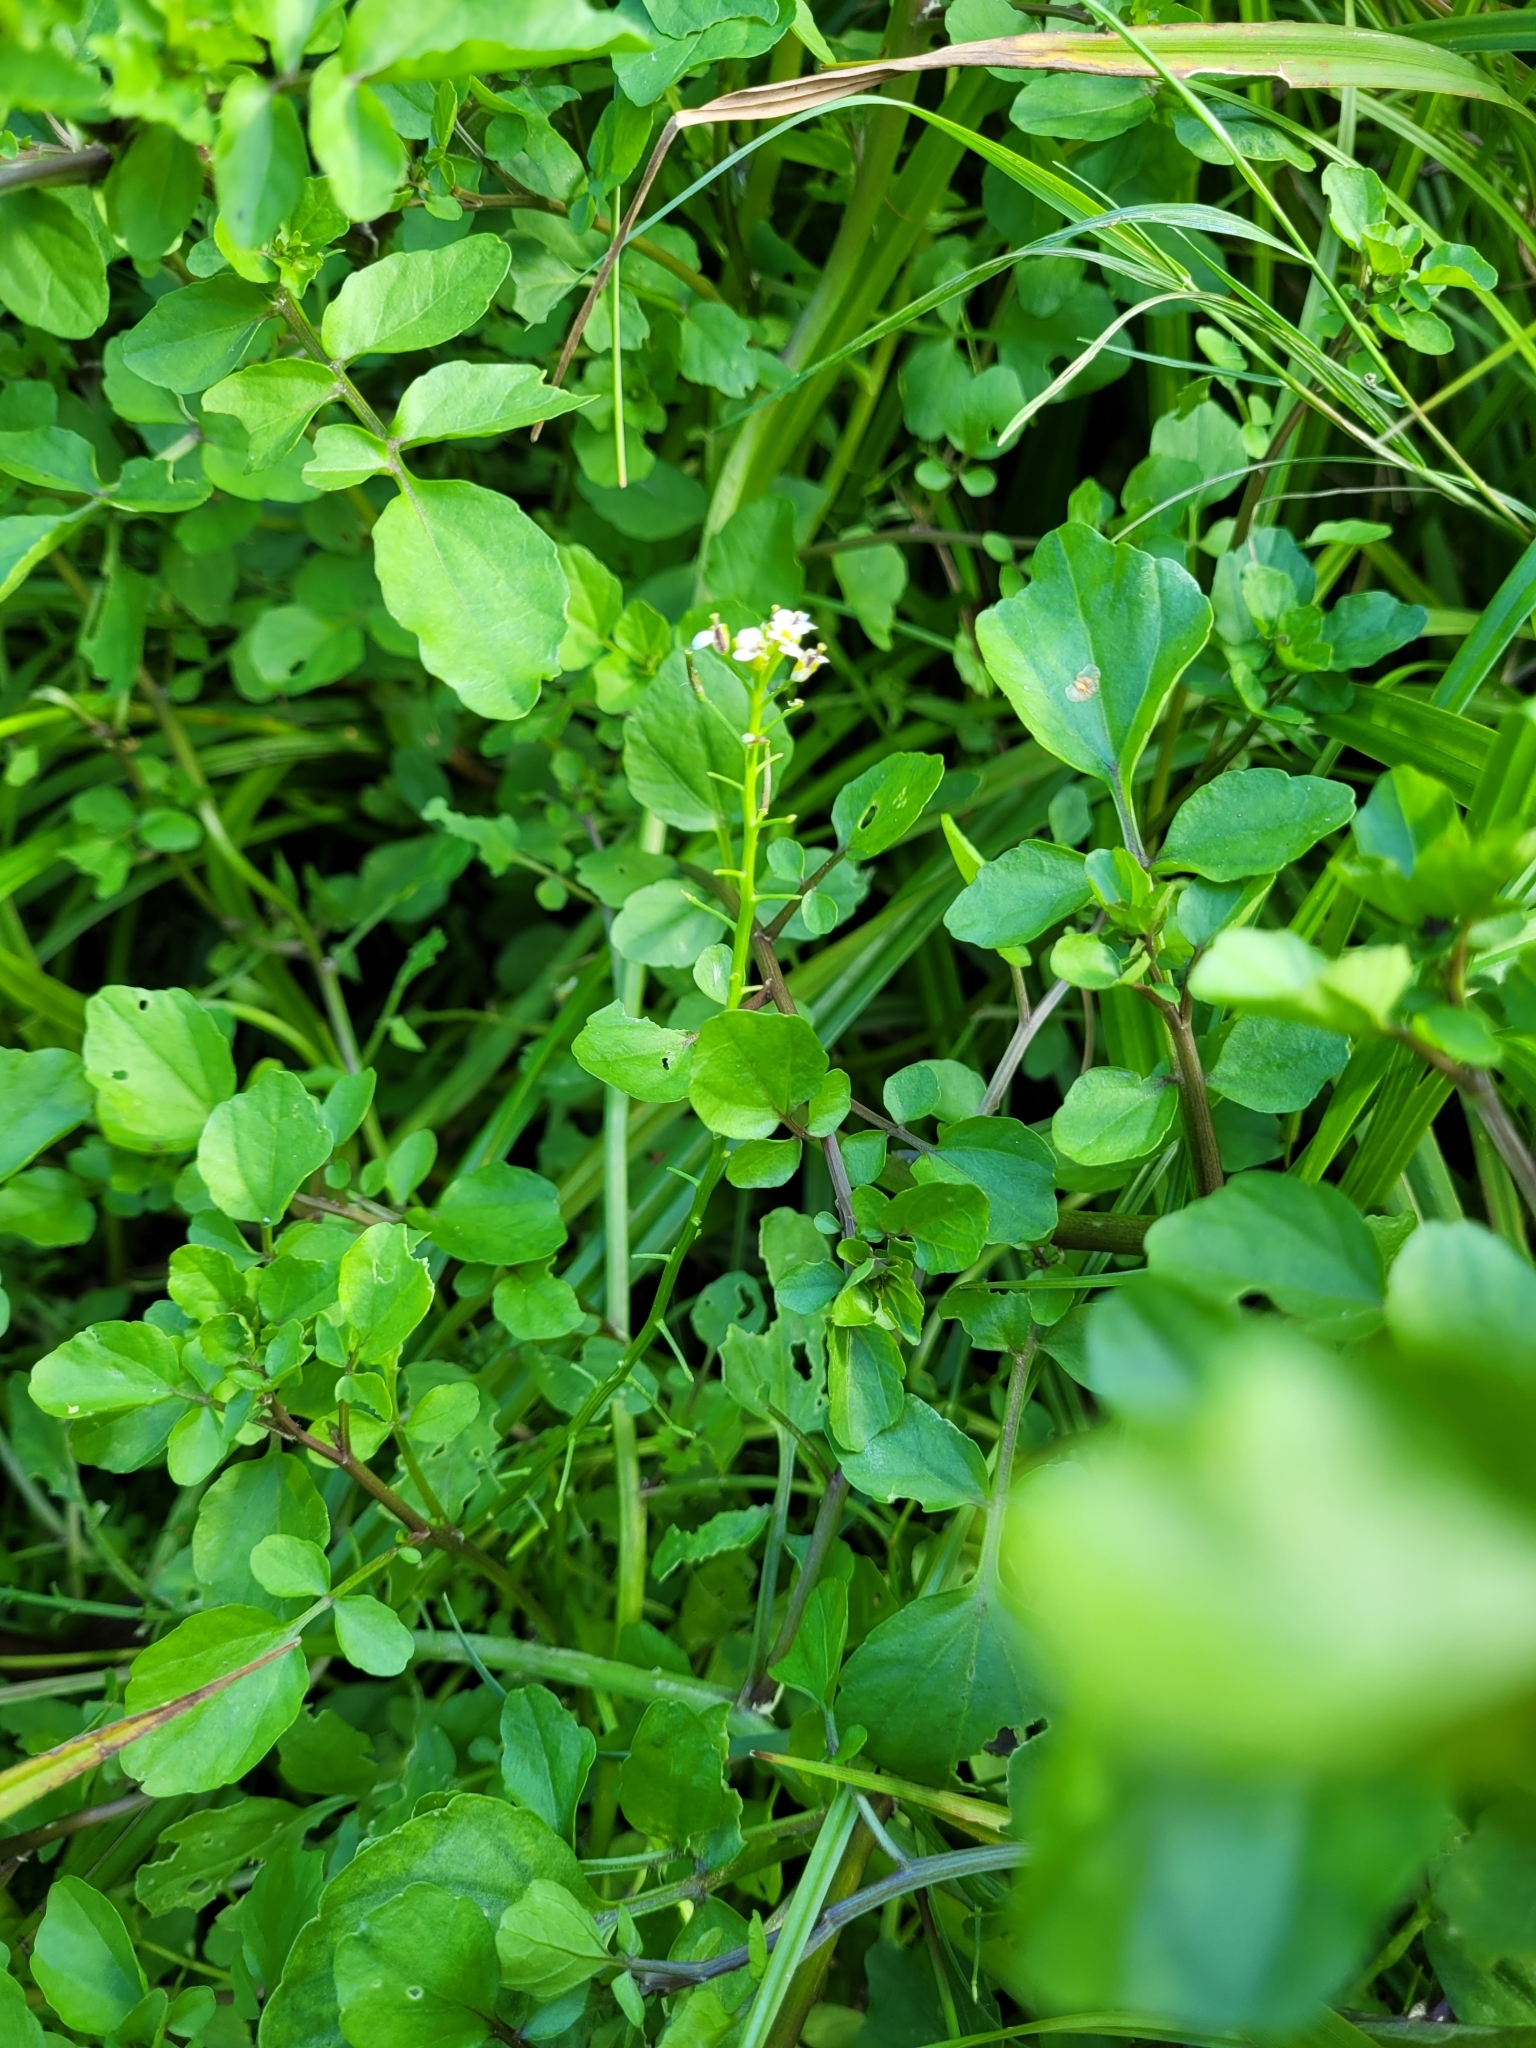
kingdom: Plantae
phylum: Tracheophyta
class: Magnoliopsida
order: Brassicales
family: Brassicaceae
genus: Nasturtium
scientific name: Nasturtium officinale
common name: Watercress
